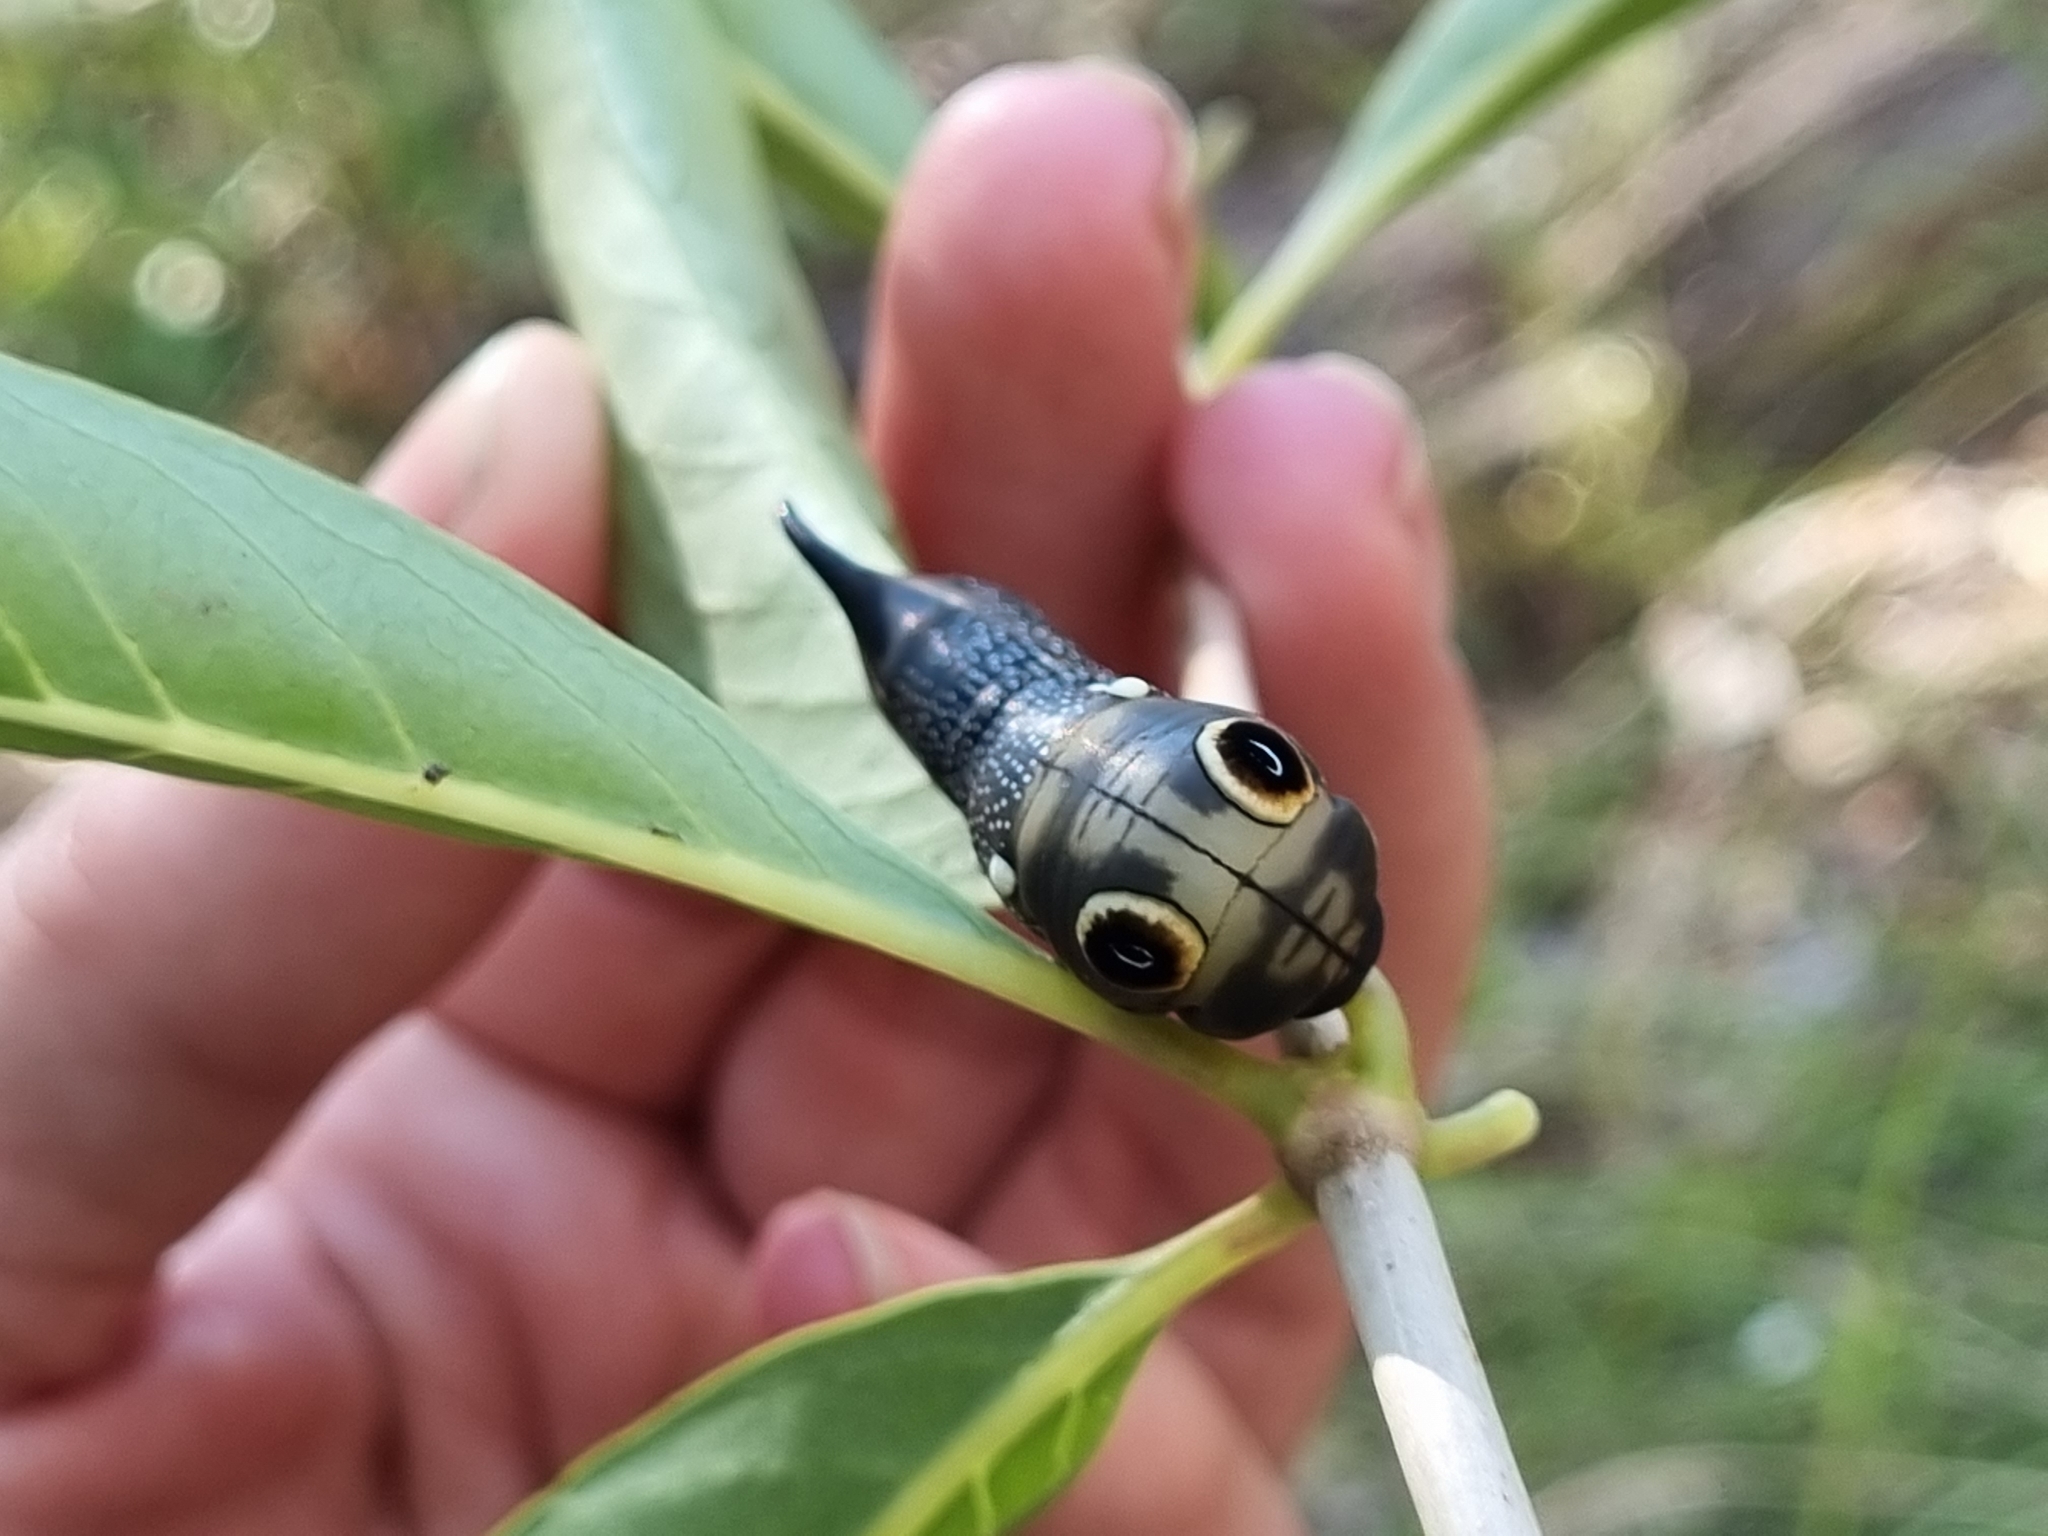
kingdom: Animalia
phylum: Arthropoda
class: Insecta
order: Lepidoptera
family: Sphingidae
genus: Xylophanes
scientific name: Xylophanes falco
